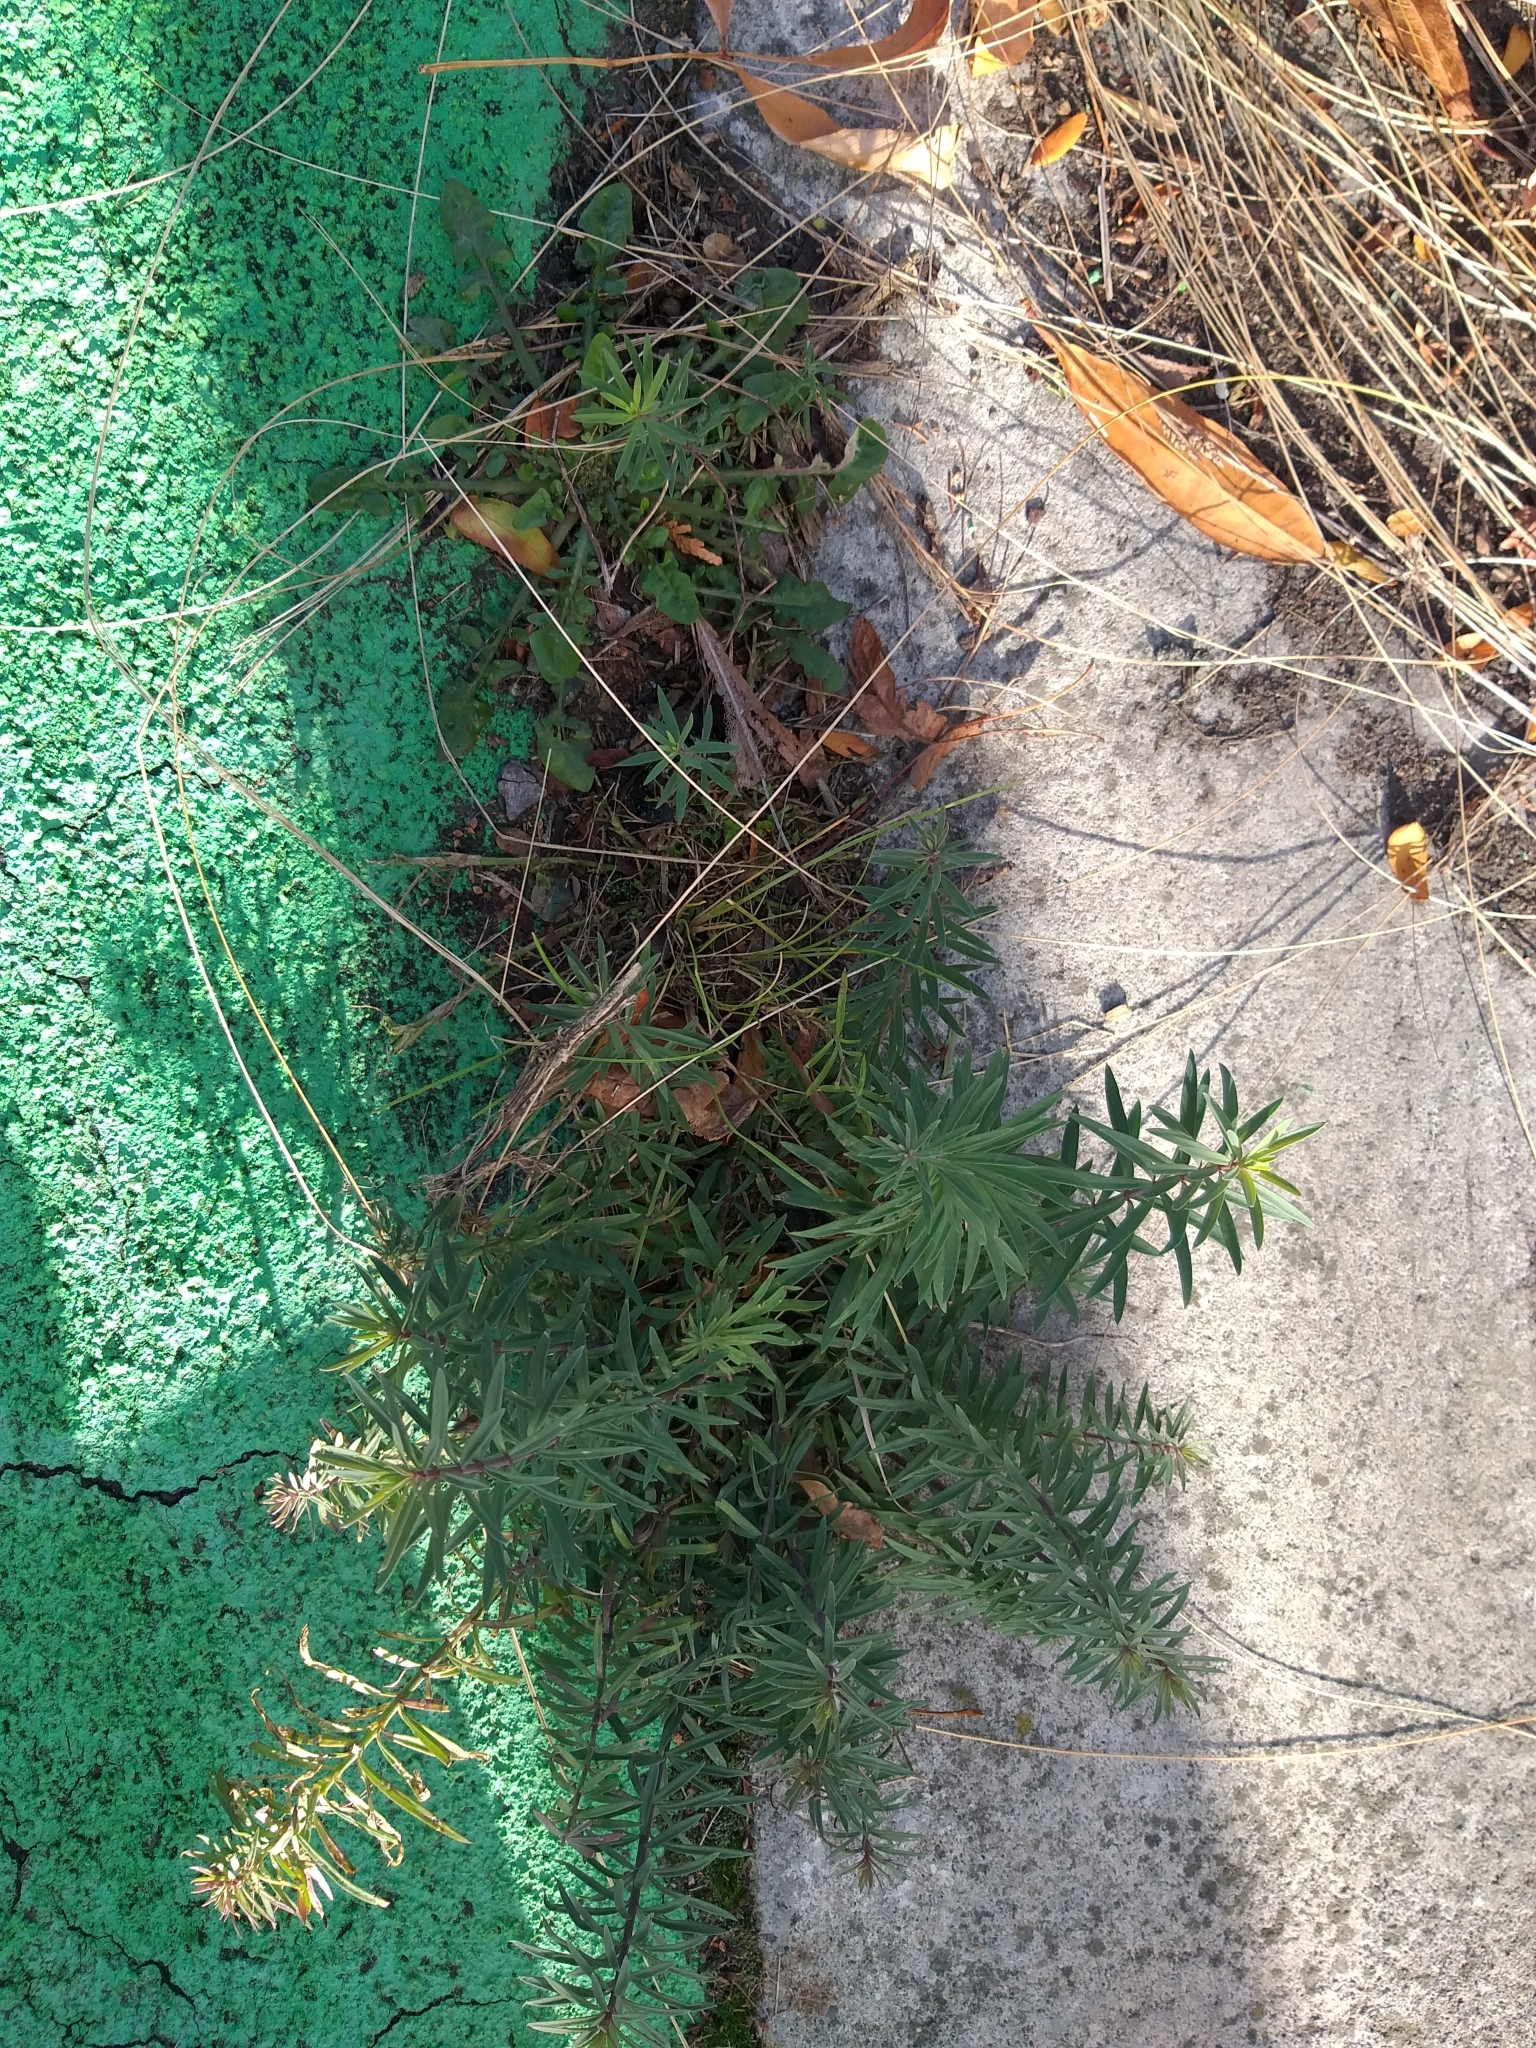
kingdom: Plantae
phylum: Tracheophyta
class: Magnoliopsida
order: Lamiales
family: Plantaginaceae
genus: Linaria
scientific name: Linaria purpurea
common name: Purple toadflax
